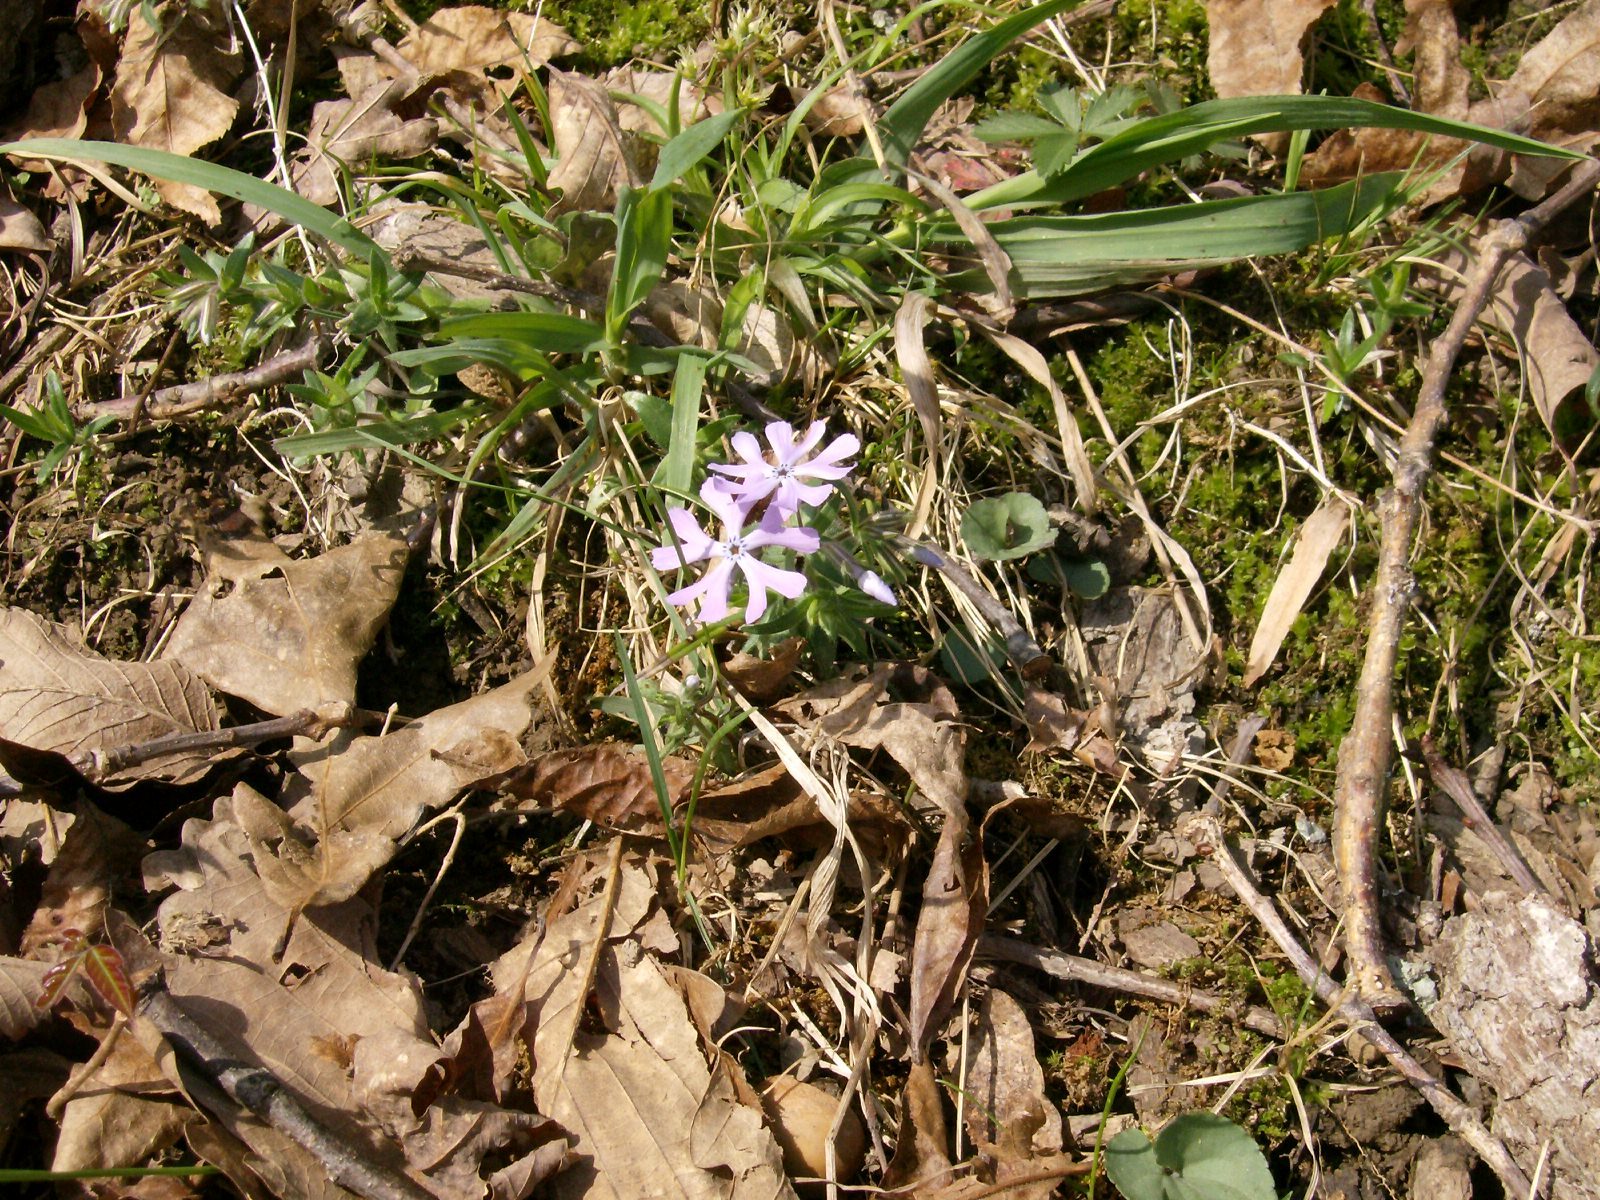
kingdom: Plantae
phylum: Tracheophyta
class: Magnoliopsida
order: Ericales
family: Polemoniaceae
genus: Phlox
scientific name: Phlox bifida
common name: Sand phlox
